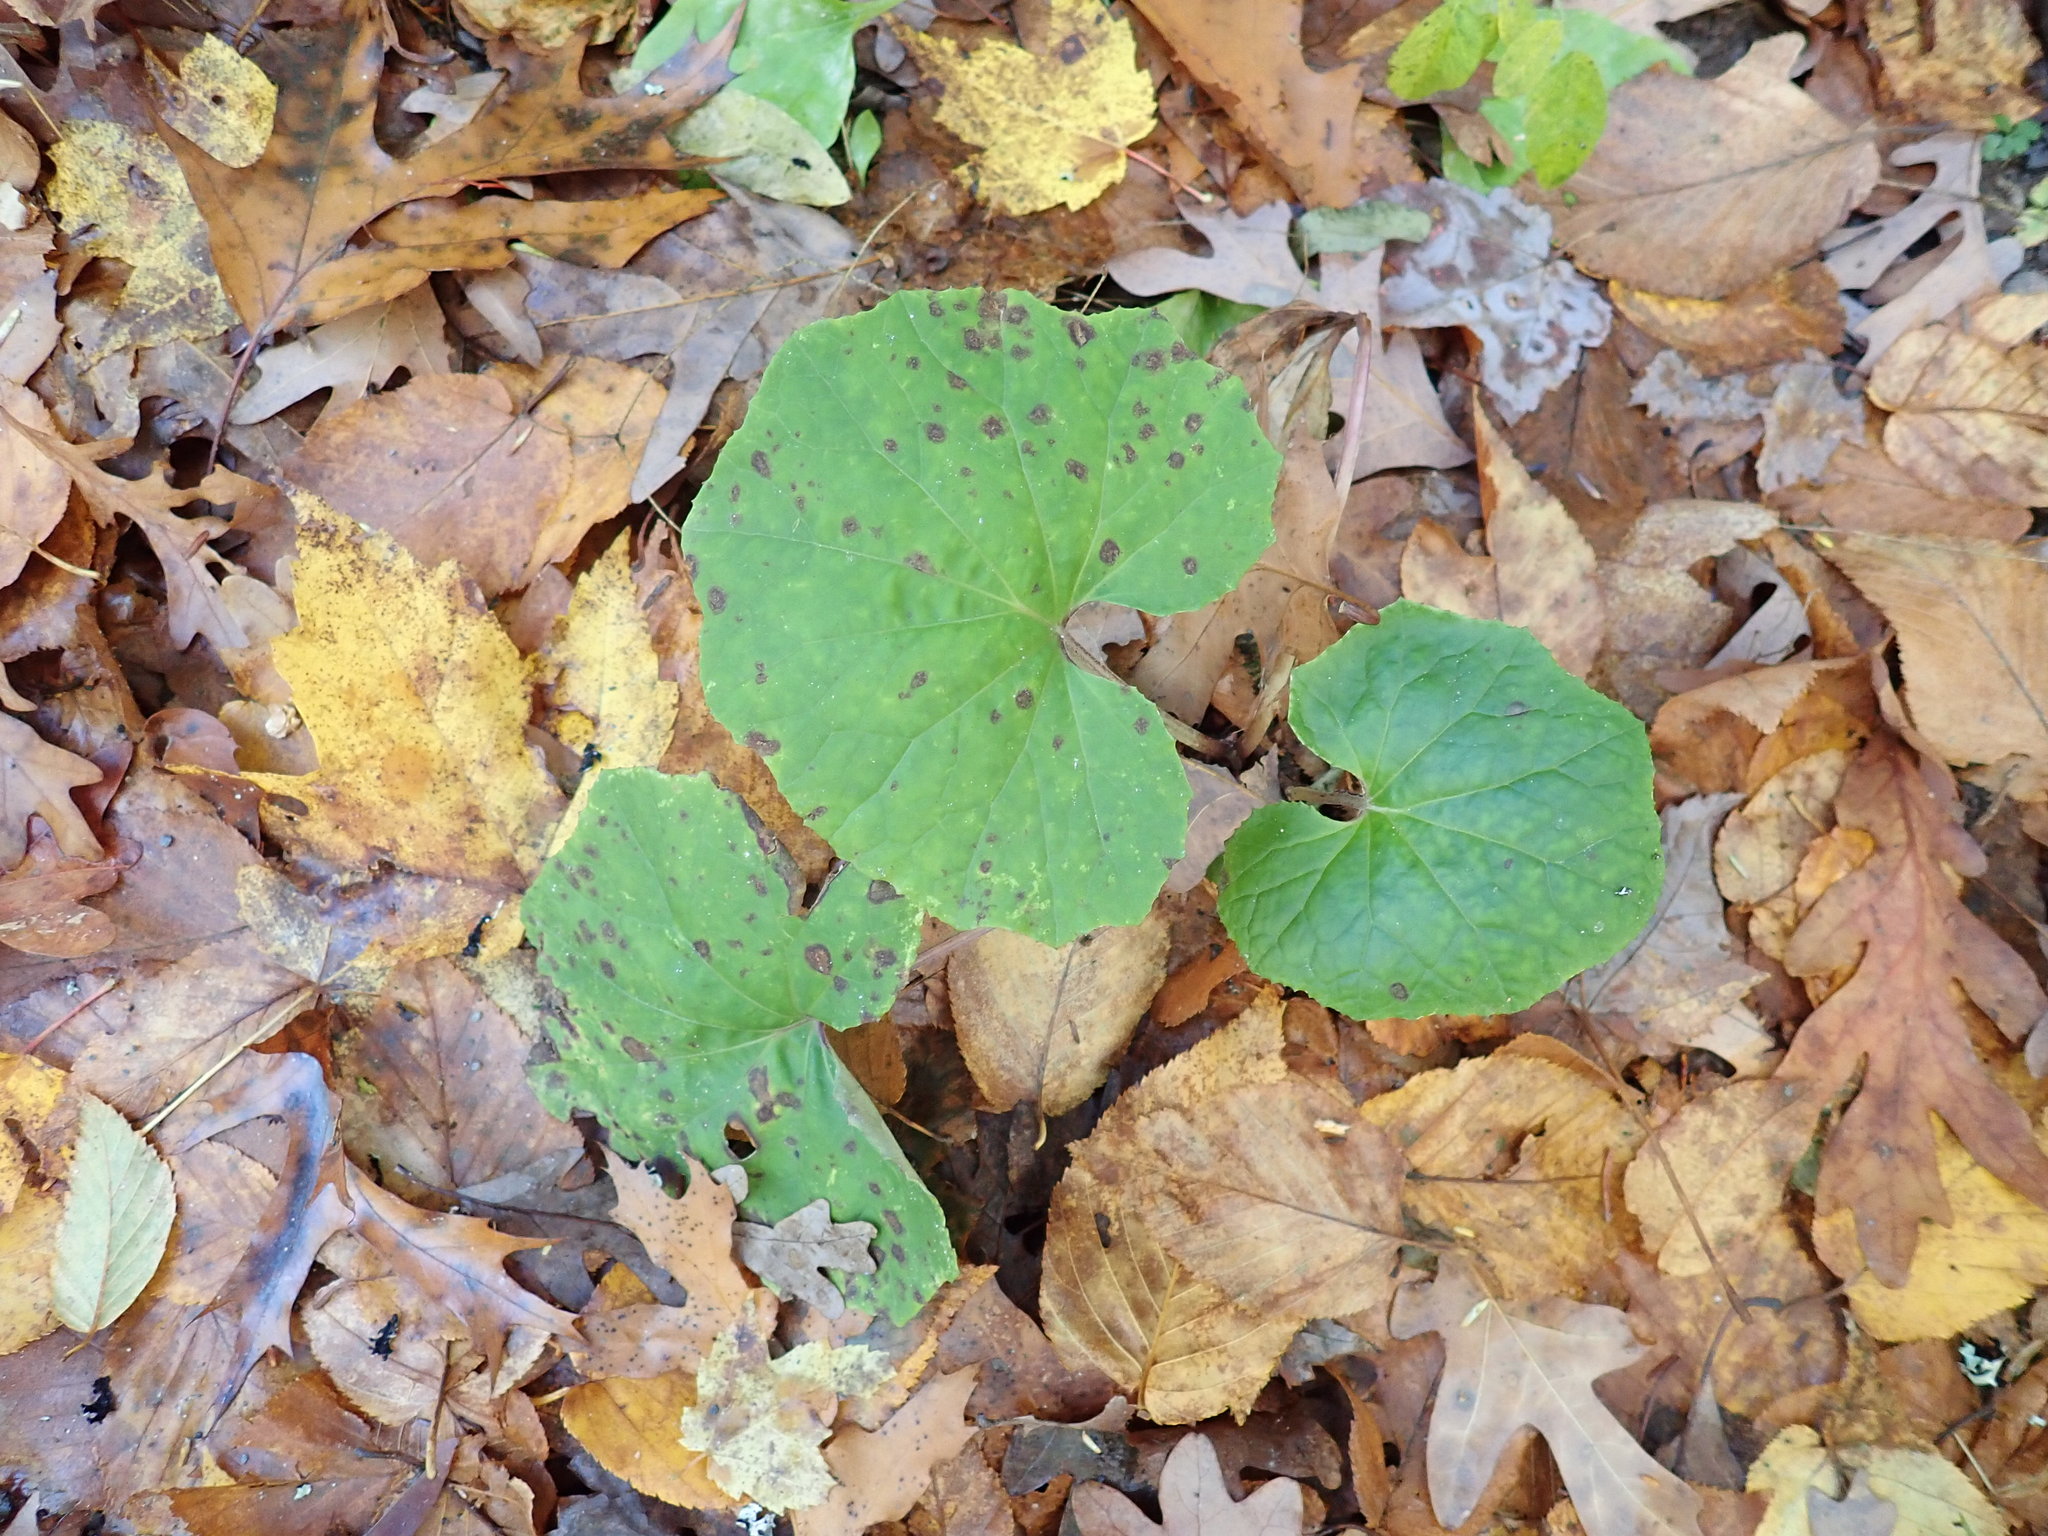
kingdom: Plantae
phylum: Tracheophyta
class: Magnoliopsida
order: Asterales
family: Asteraceae
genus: Tussilago
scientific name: Tussilago farfara
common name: Coltsfoot
